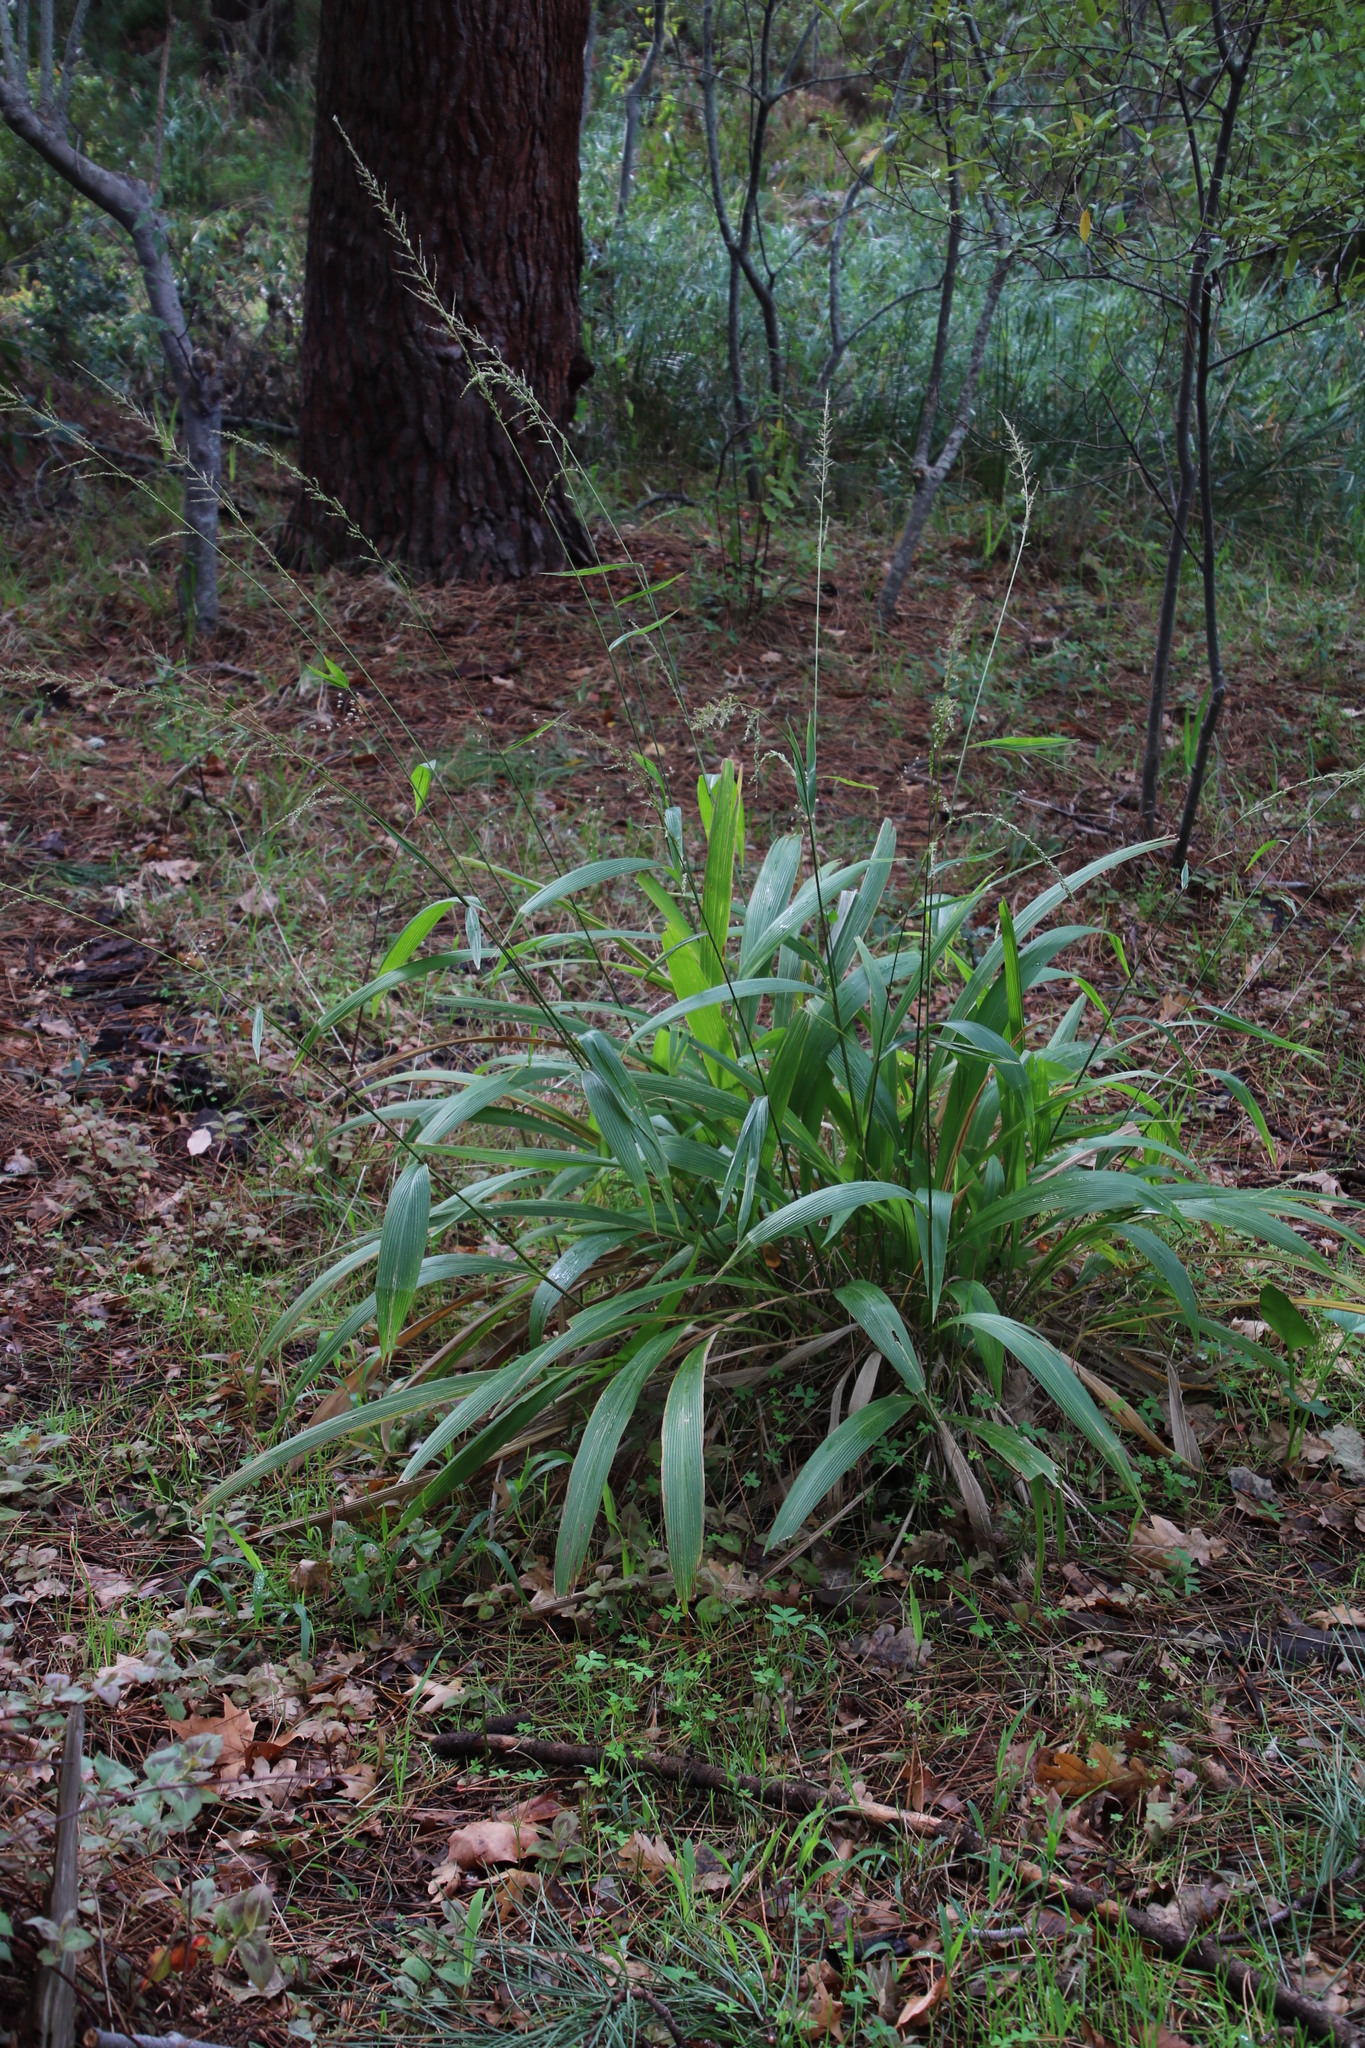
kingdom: Plantae
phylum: Tracheophyta
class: Liliopsida
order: Poales
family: Poaceae
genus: Setaria
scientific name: Setaria megaphylla
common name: Bigleaf bristlegrass
